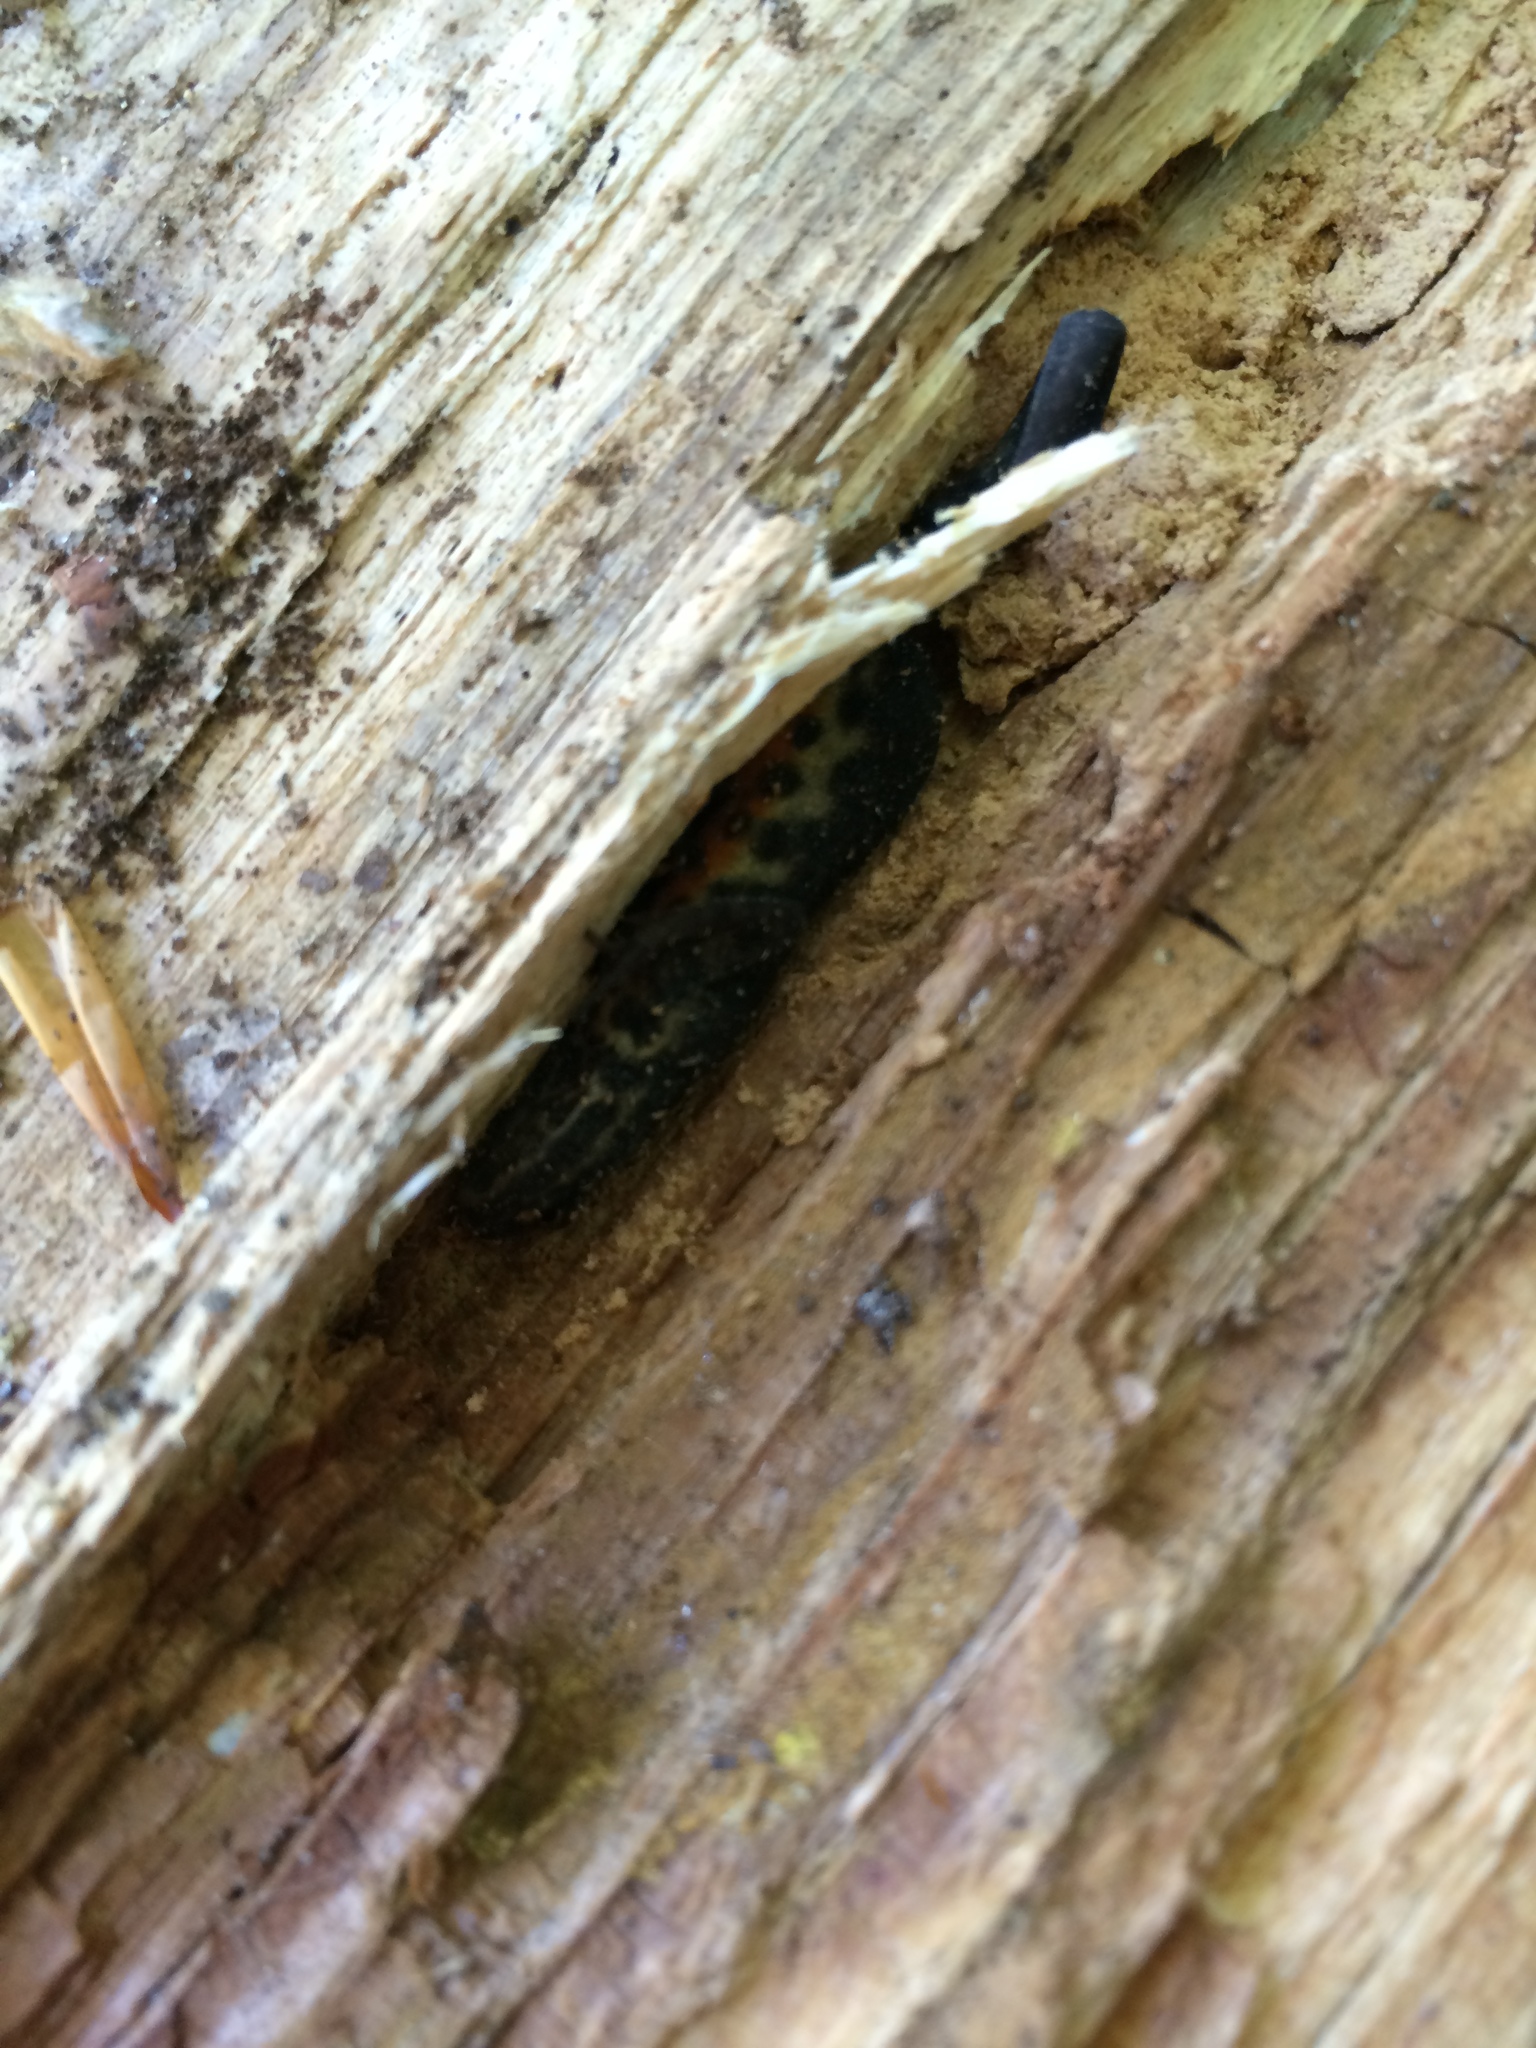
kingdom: Animalia
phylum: Chordata
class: Amphibia
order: Caudata
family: Salamandridae
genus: Lissotriton
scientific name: Lissotriton vulgaris
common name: Smooth newt
